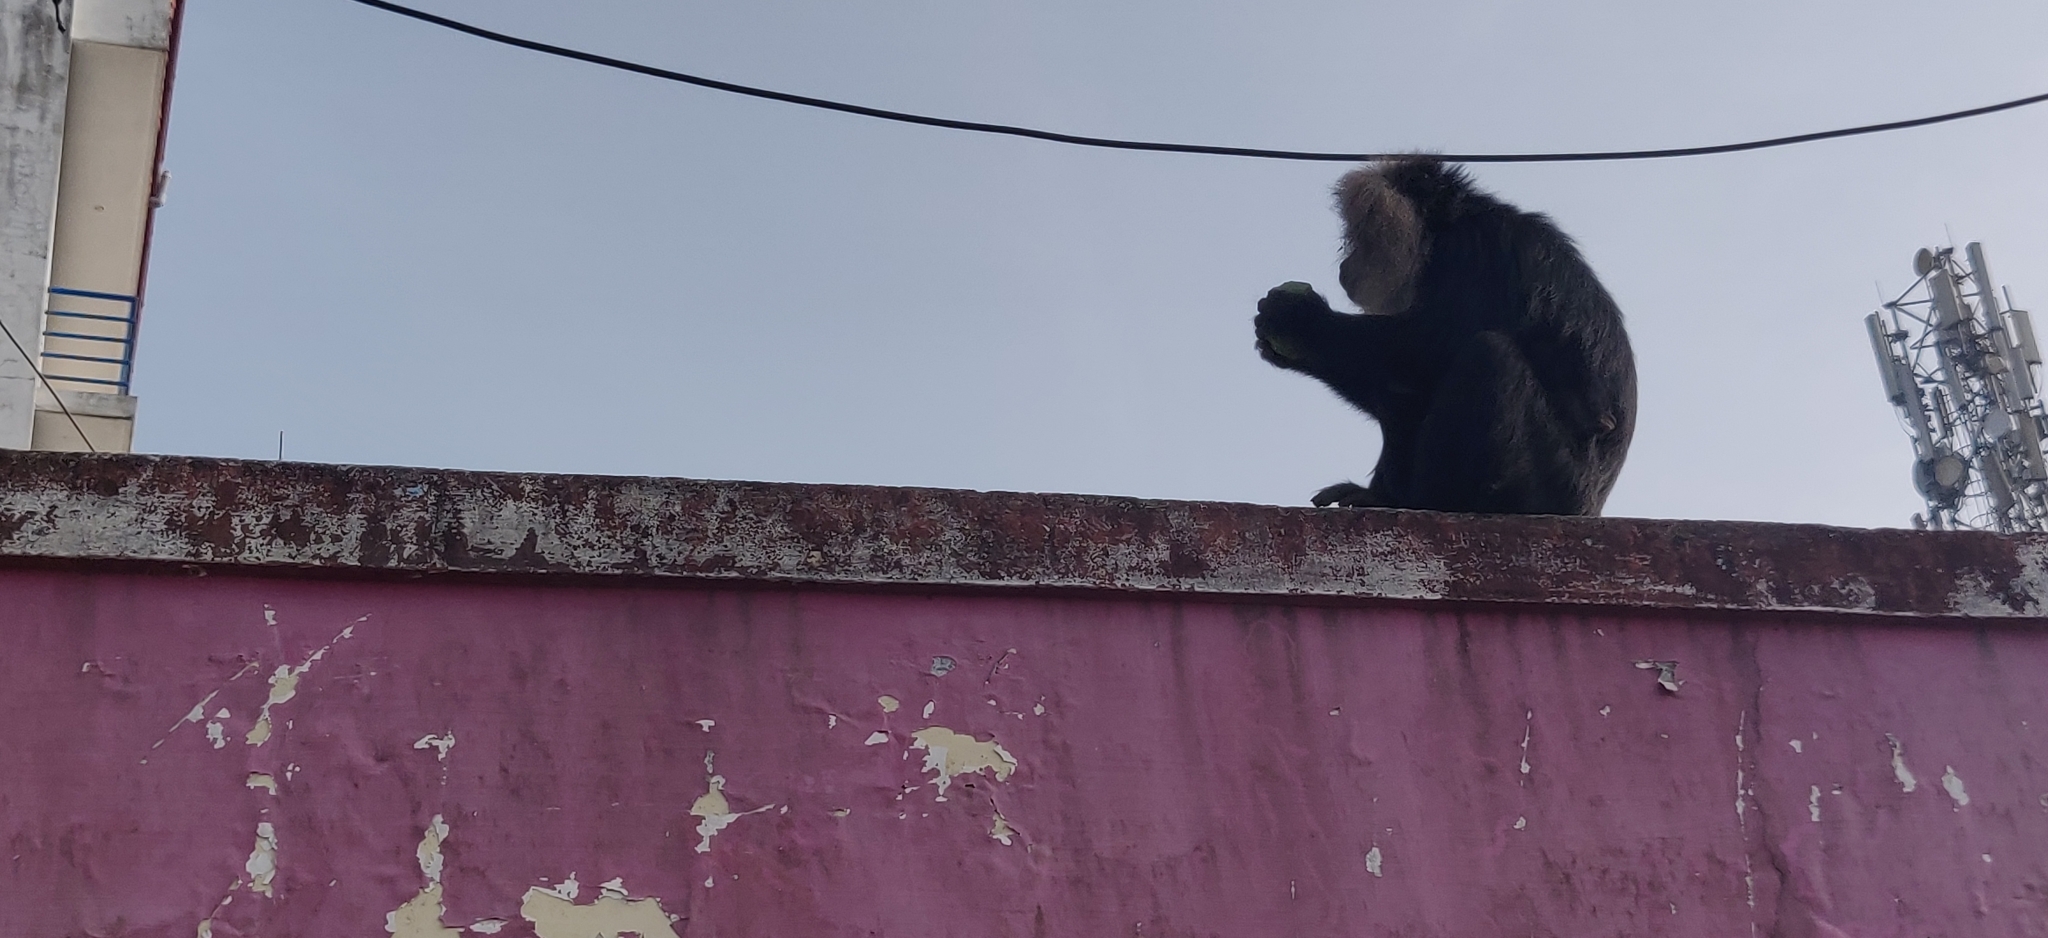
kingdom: Animalia
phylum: Chordata
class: Mammalia
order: Primates
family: Cercopithecidae
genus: Macaca
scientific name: Macaca silenus
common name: Lion-tailed macaque
